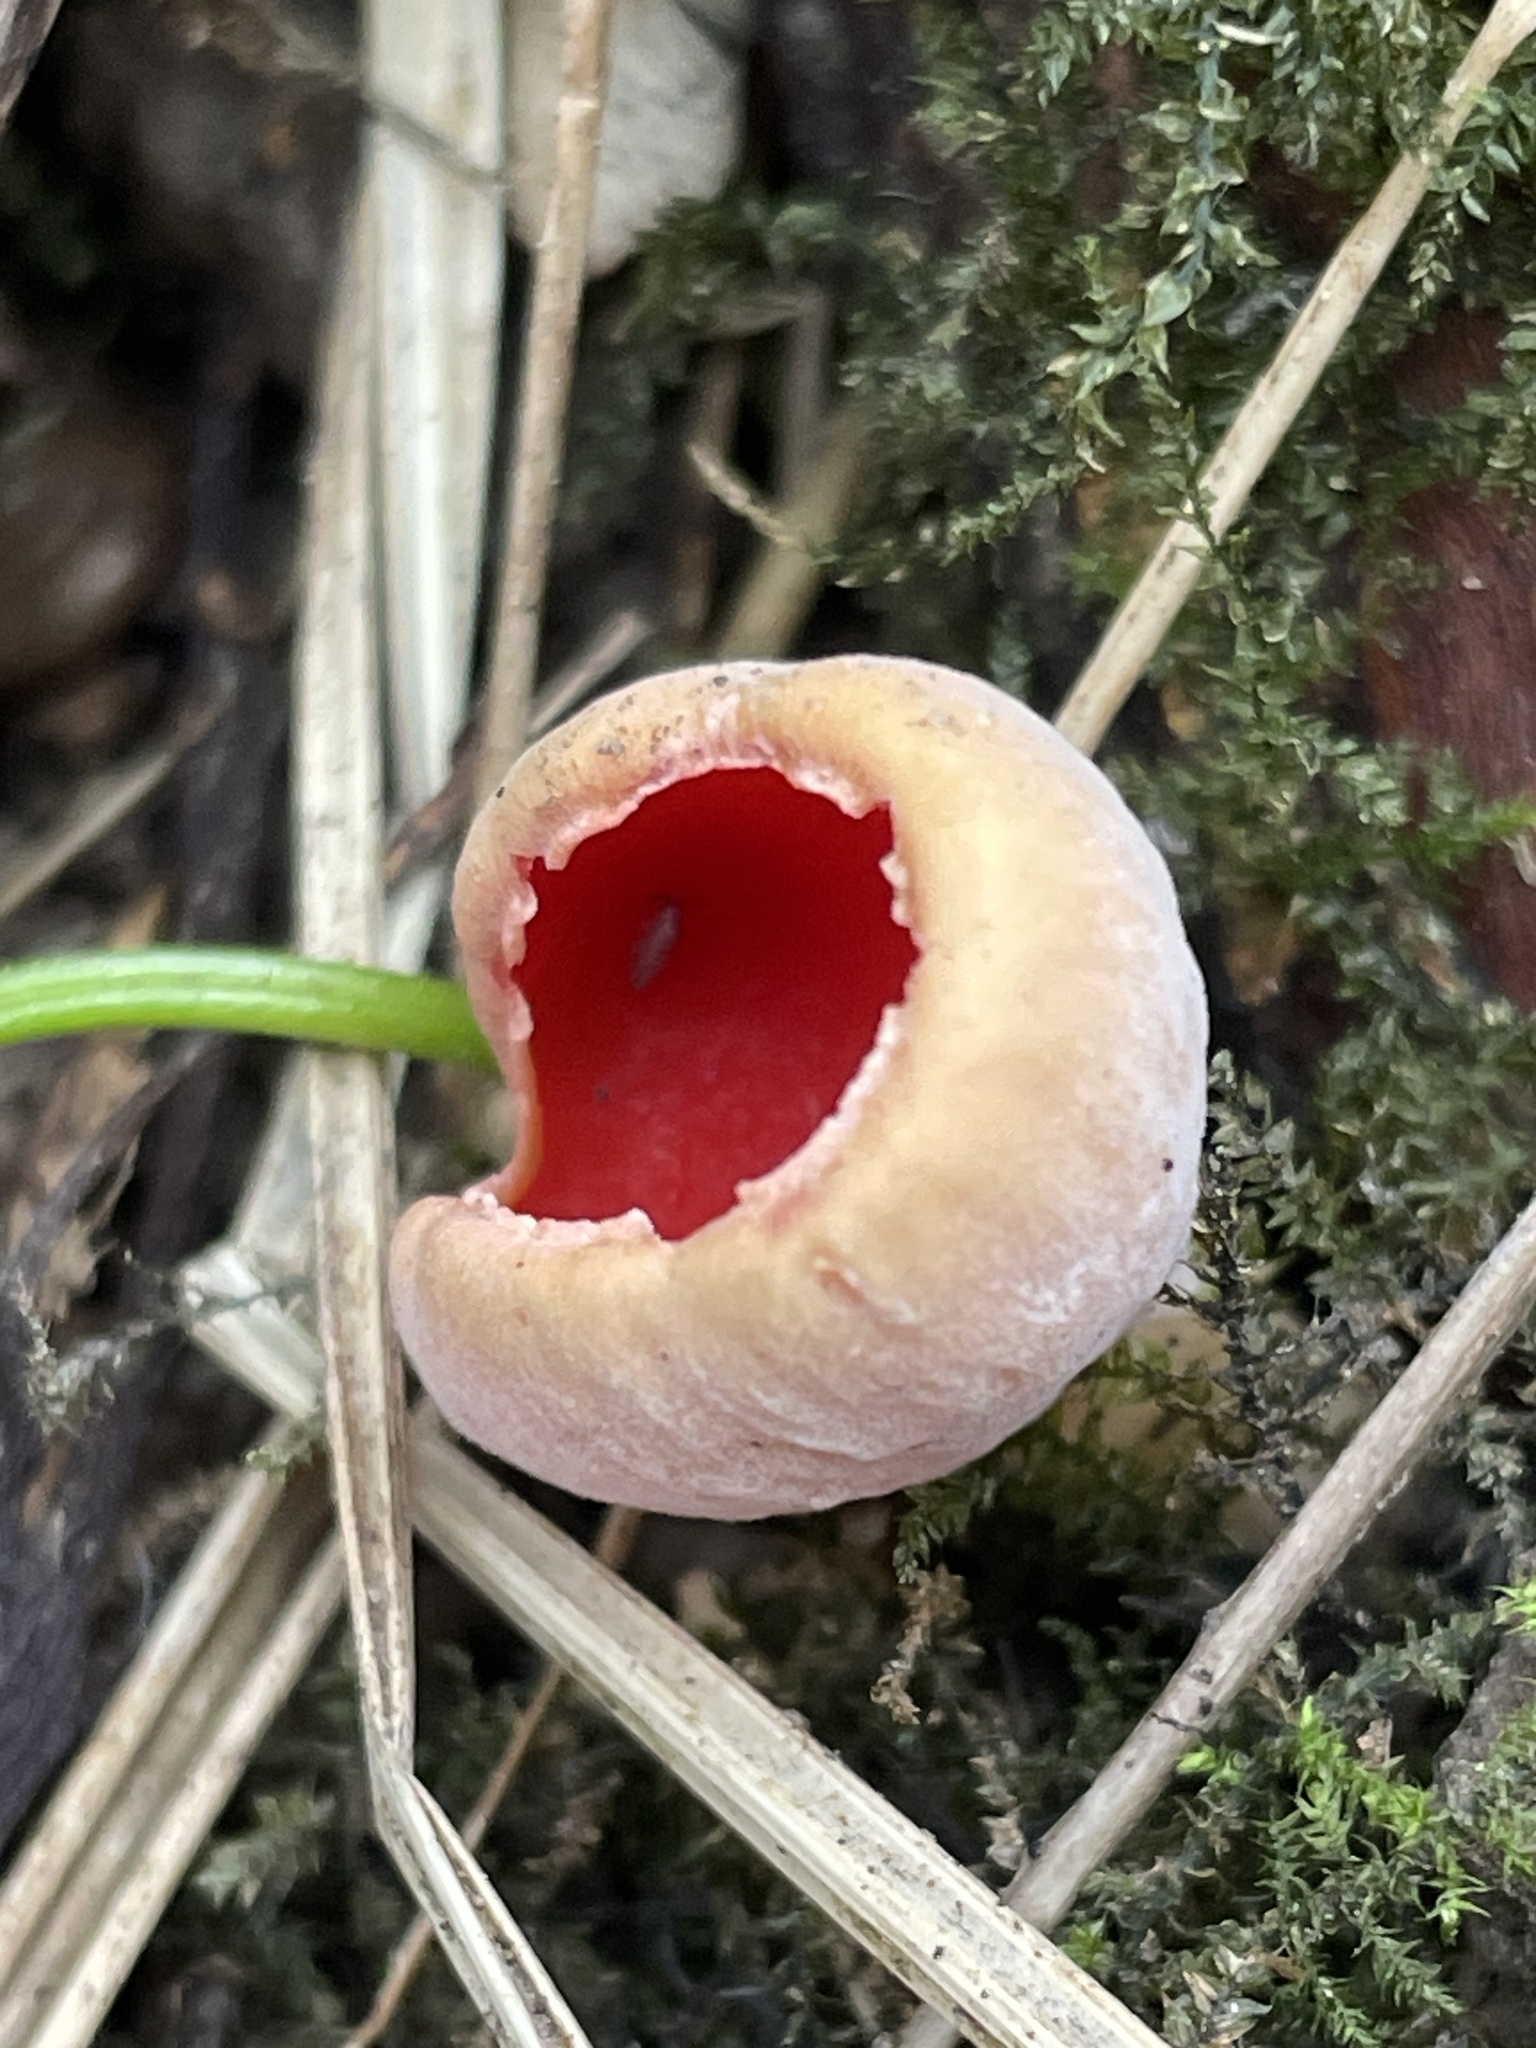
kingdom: Fungi
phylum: Ascomycota
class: Pezizomycetes
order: Pezizales
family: Sarcoscyphaceae
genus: Sarcoscypha
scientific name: Sarcoscypha
